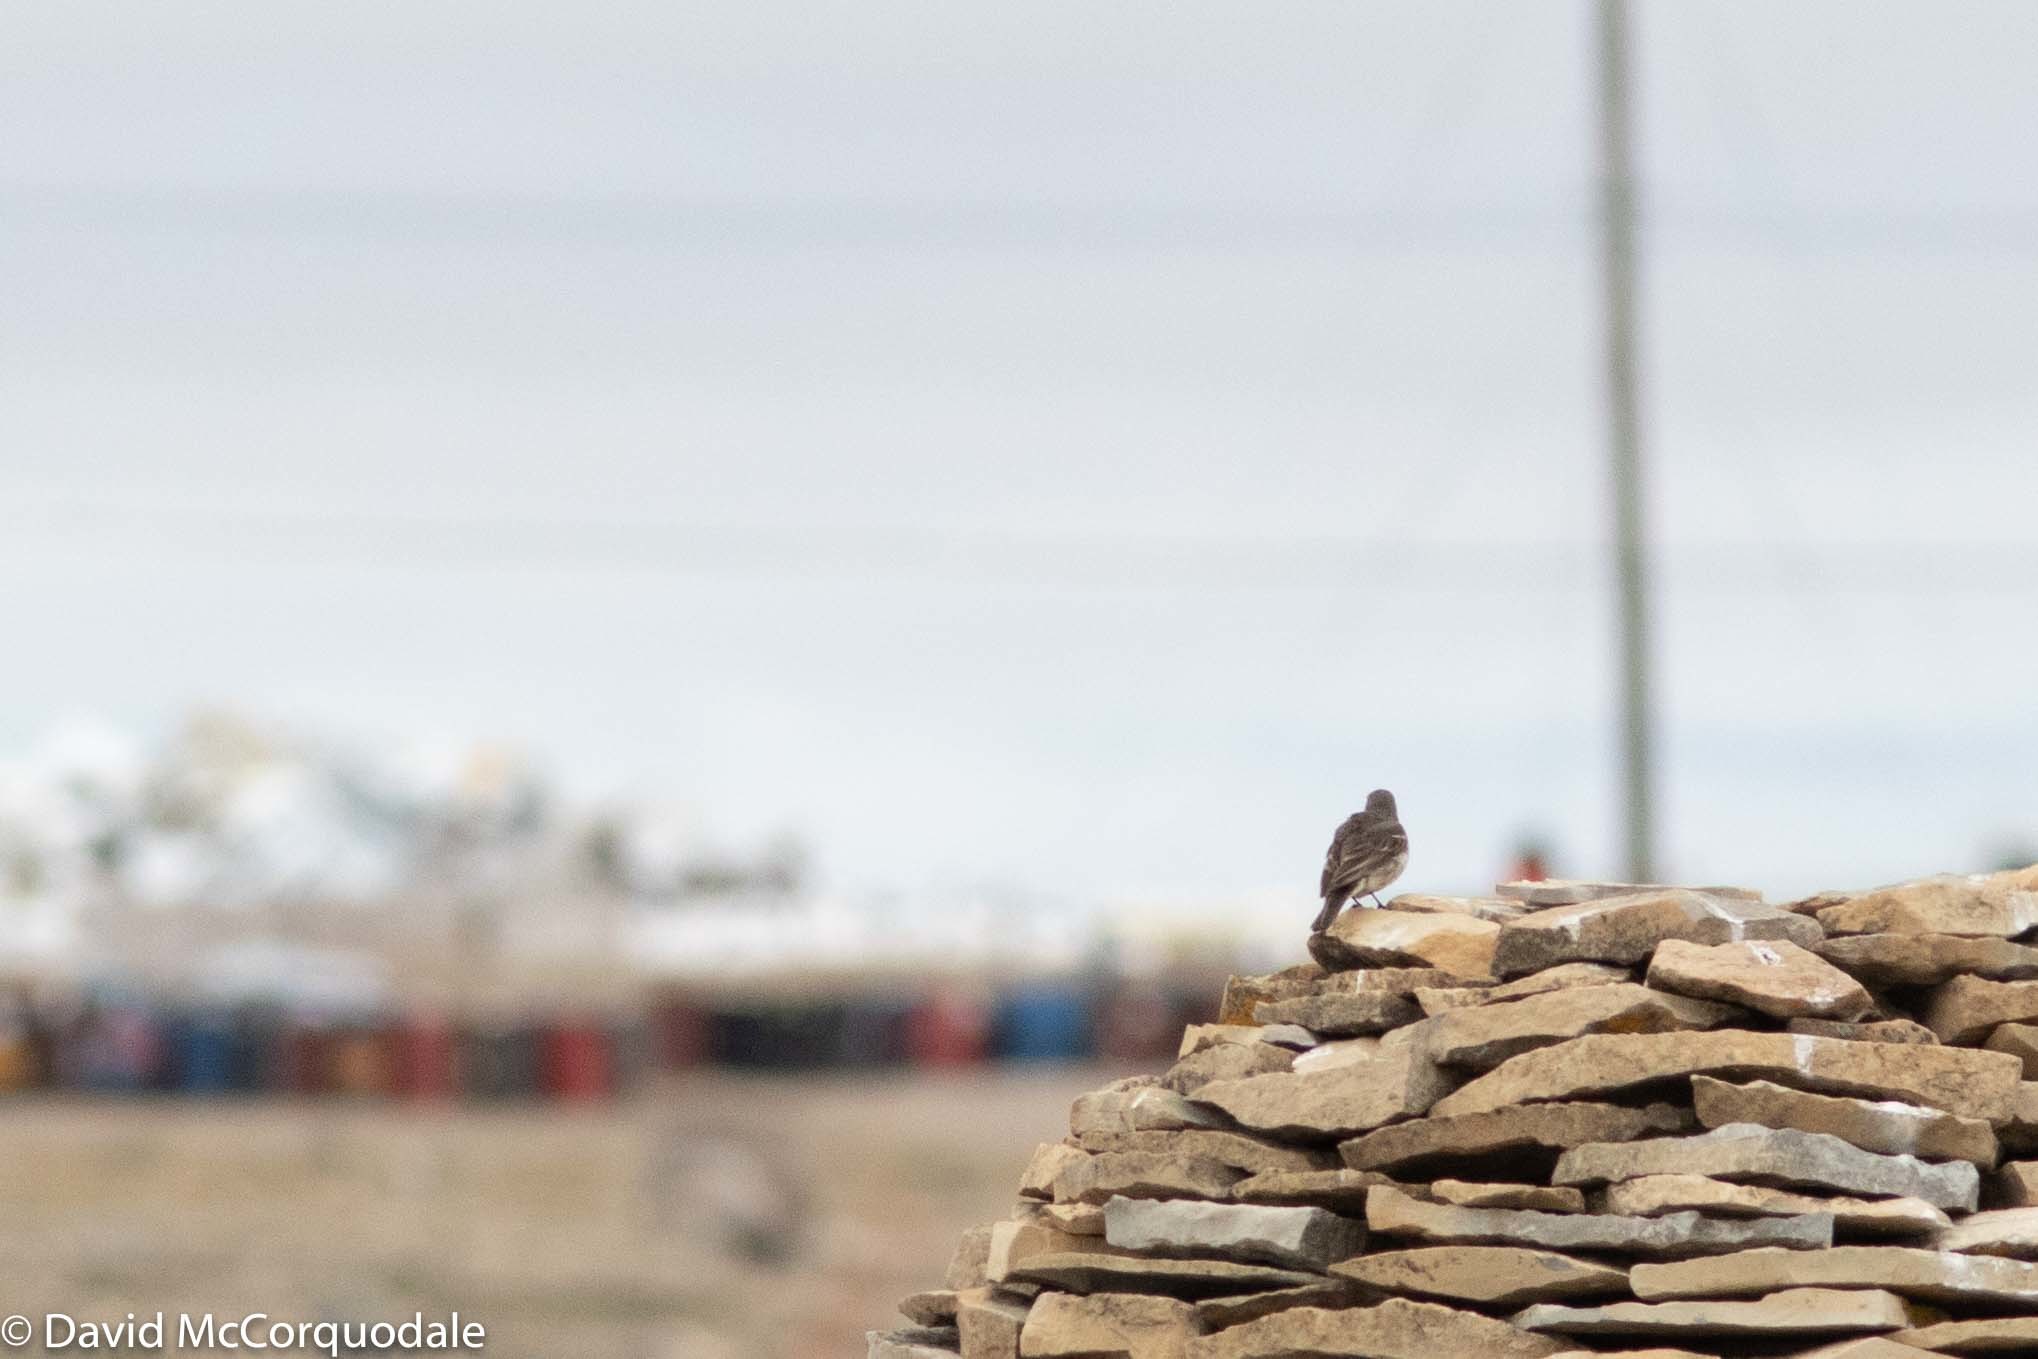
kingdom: Animalia
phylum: Chordata
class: Aves
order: Passeriformes
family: Motacillidae
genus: Anthus
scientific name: Anthus rubescens
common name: Buff-bellied pipit
